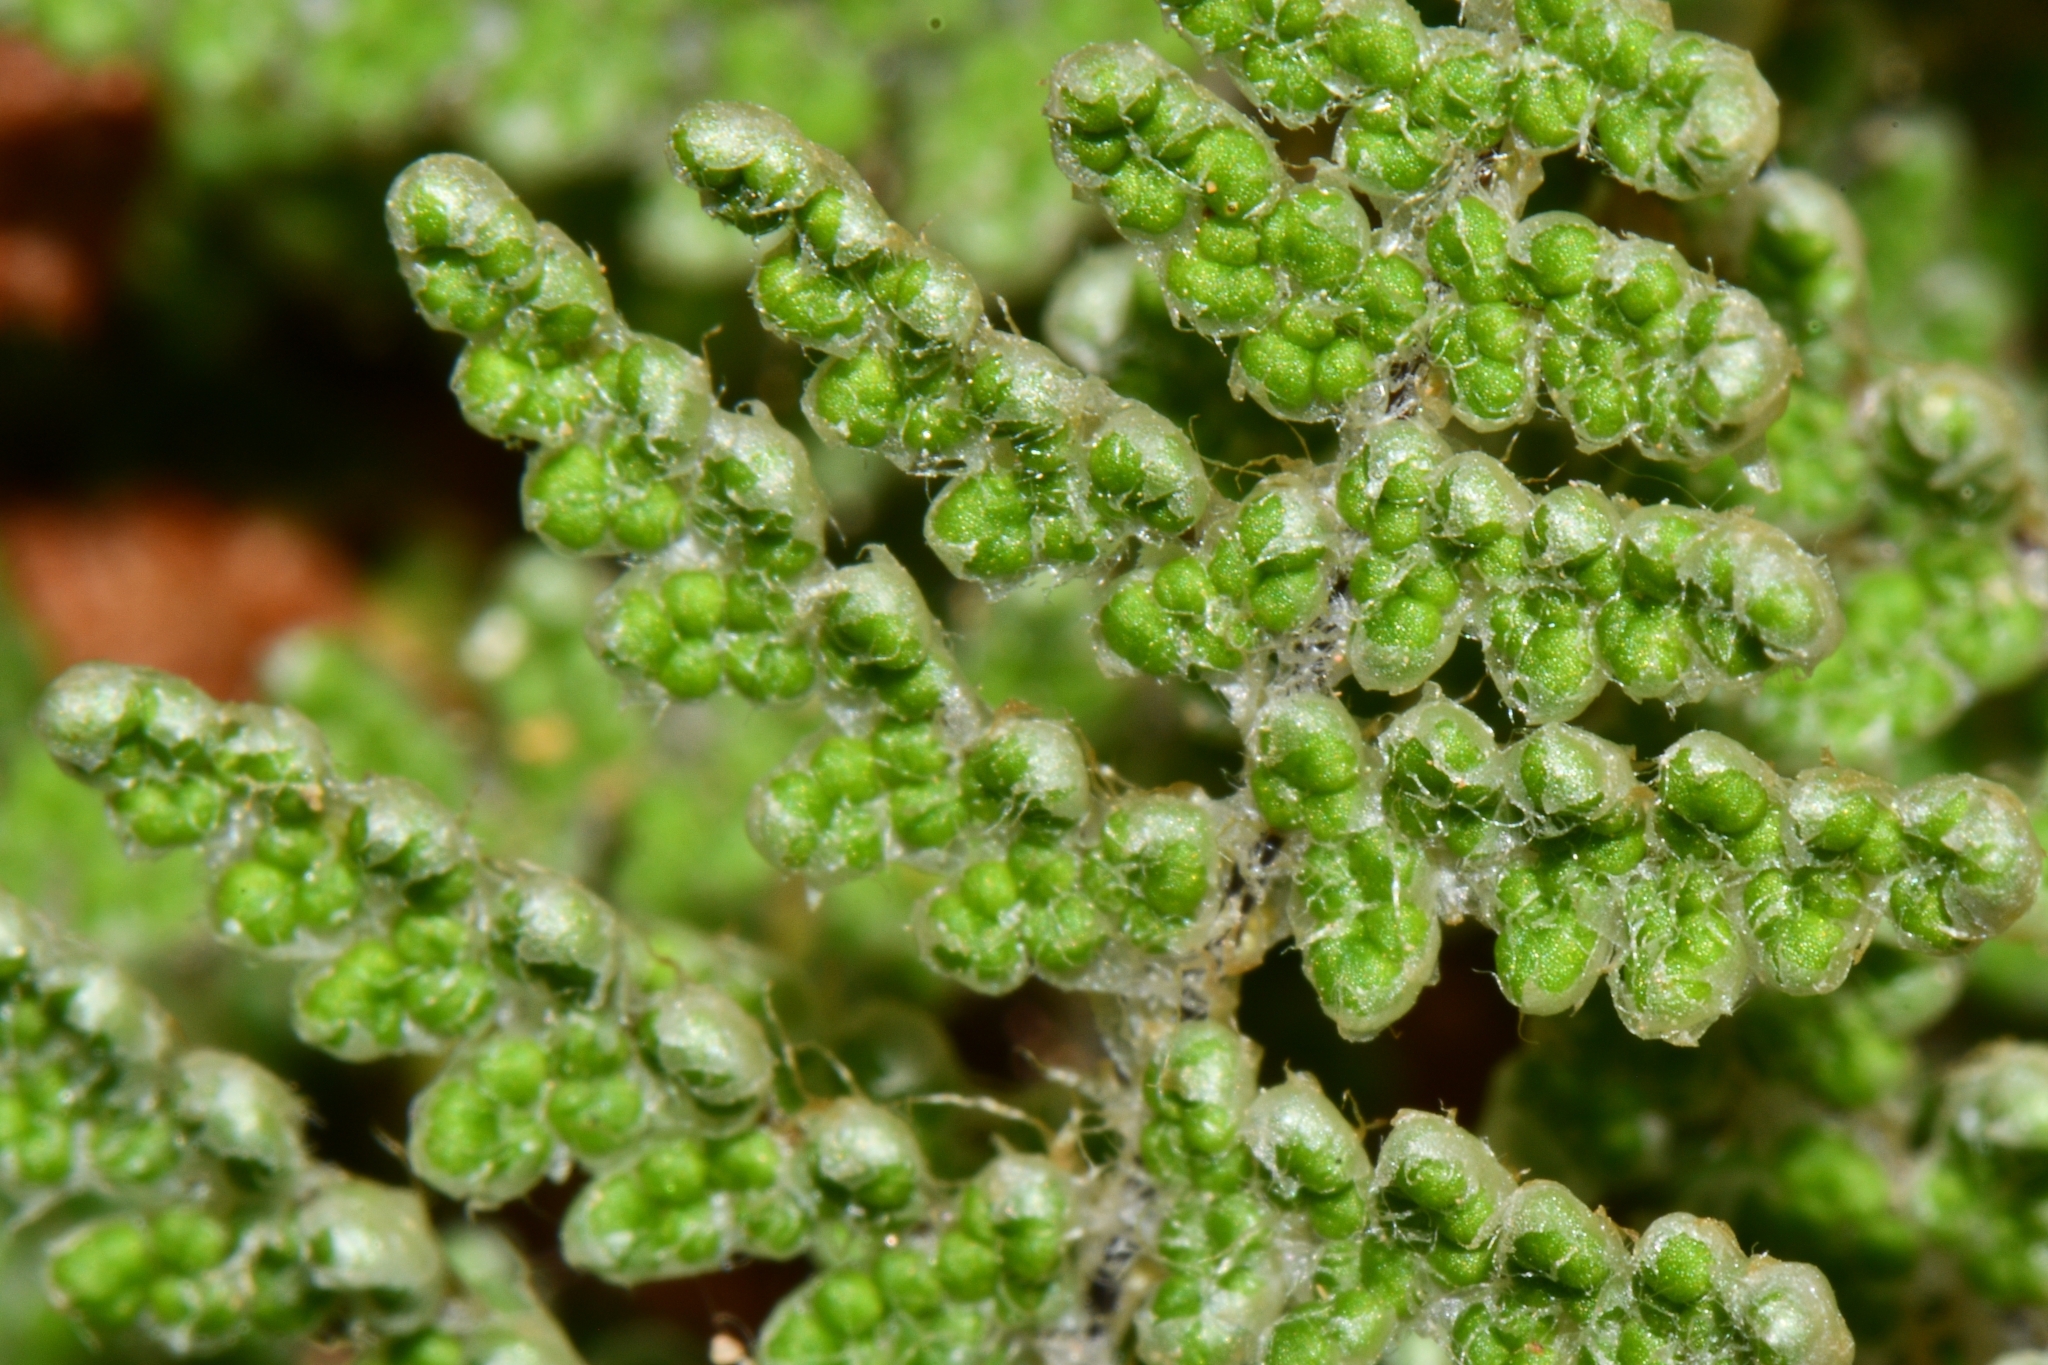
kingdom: Plantae
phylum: Tracheophyta
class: Polypodiopsida
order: Polypodiales
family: Pteridaceae
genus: Myriopteris
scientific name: Myriopteris covillei
